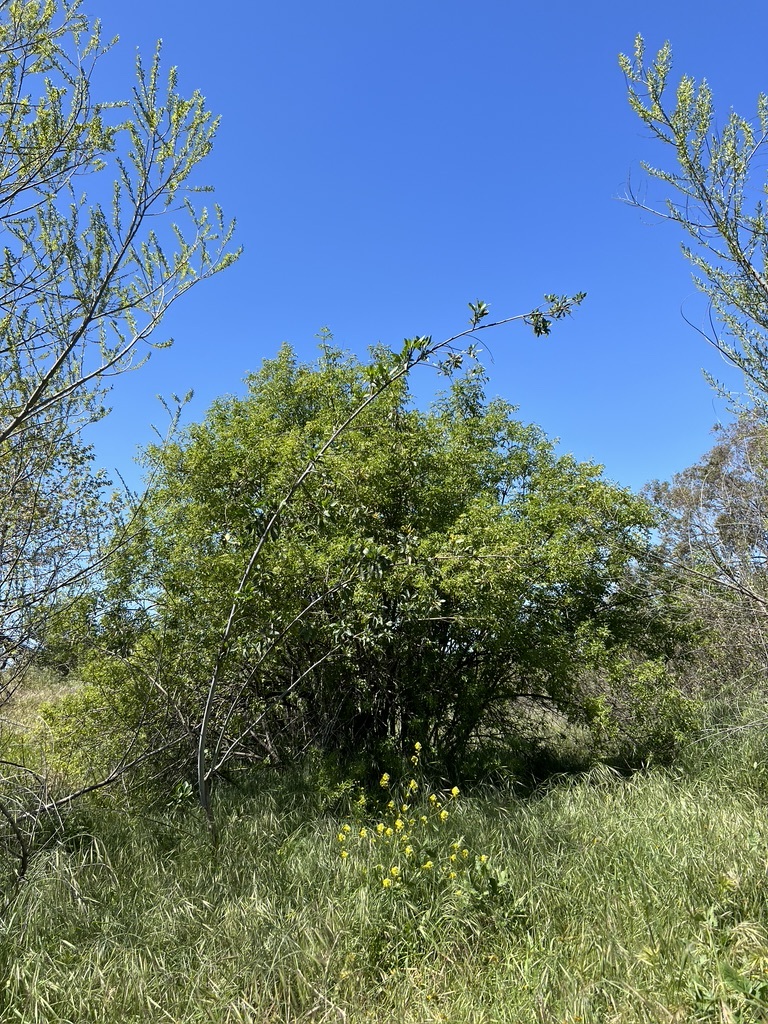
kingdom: Plantae
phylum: Tracheophyta
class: Magnoliopsida
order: Solanales
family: Solanaceae
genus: Nicotiana
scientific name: Nicotiana glauca
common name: Tree tobacco
